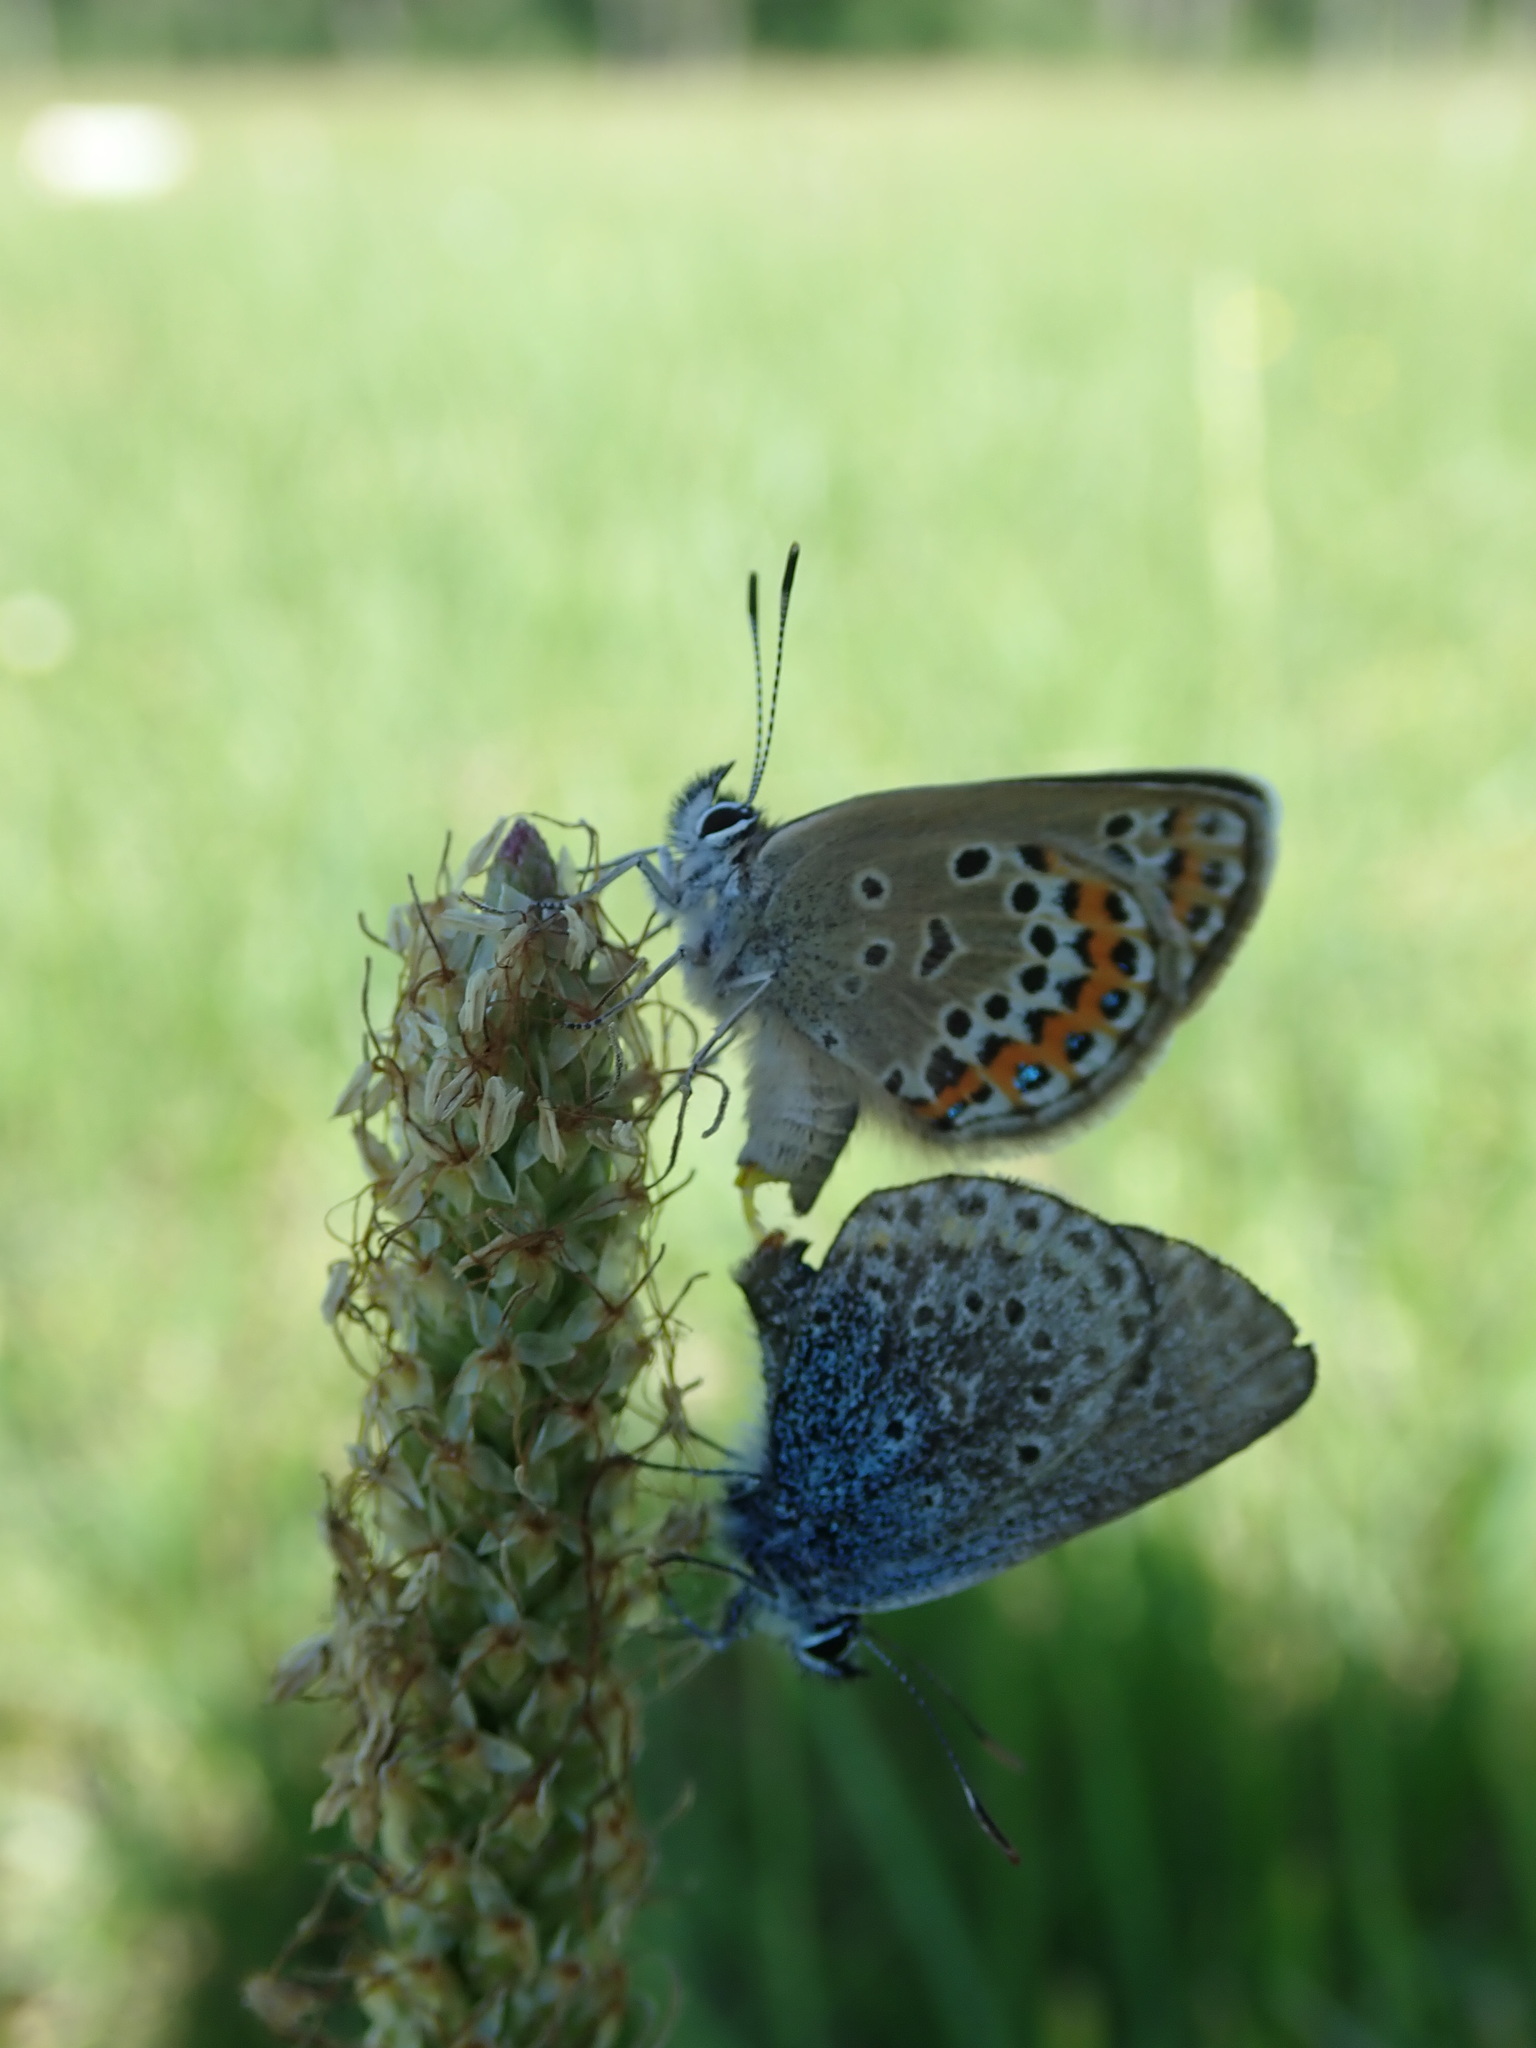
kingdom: Animalia
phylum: Arthropoda
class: Insecta
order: Lepidoptera
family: Lycaenidae
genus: Plebejus
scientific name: Plebejus argus
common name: Silver-studded blue
